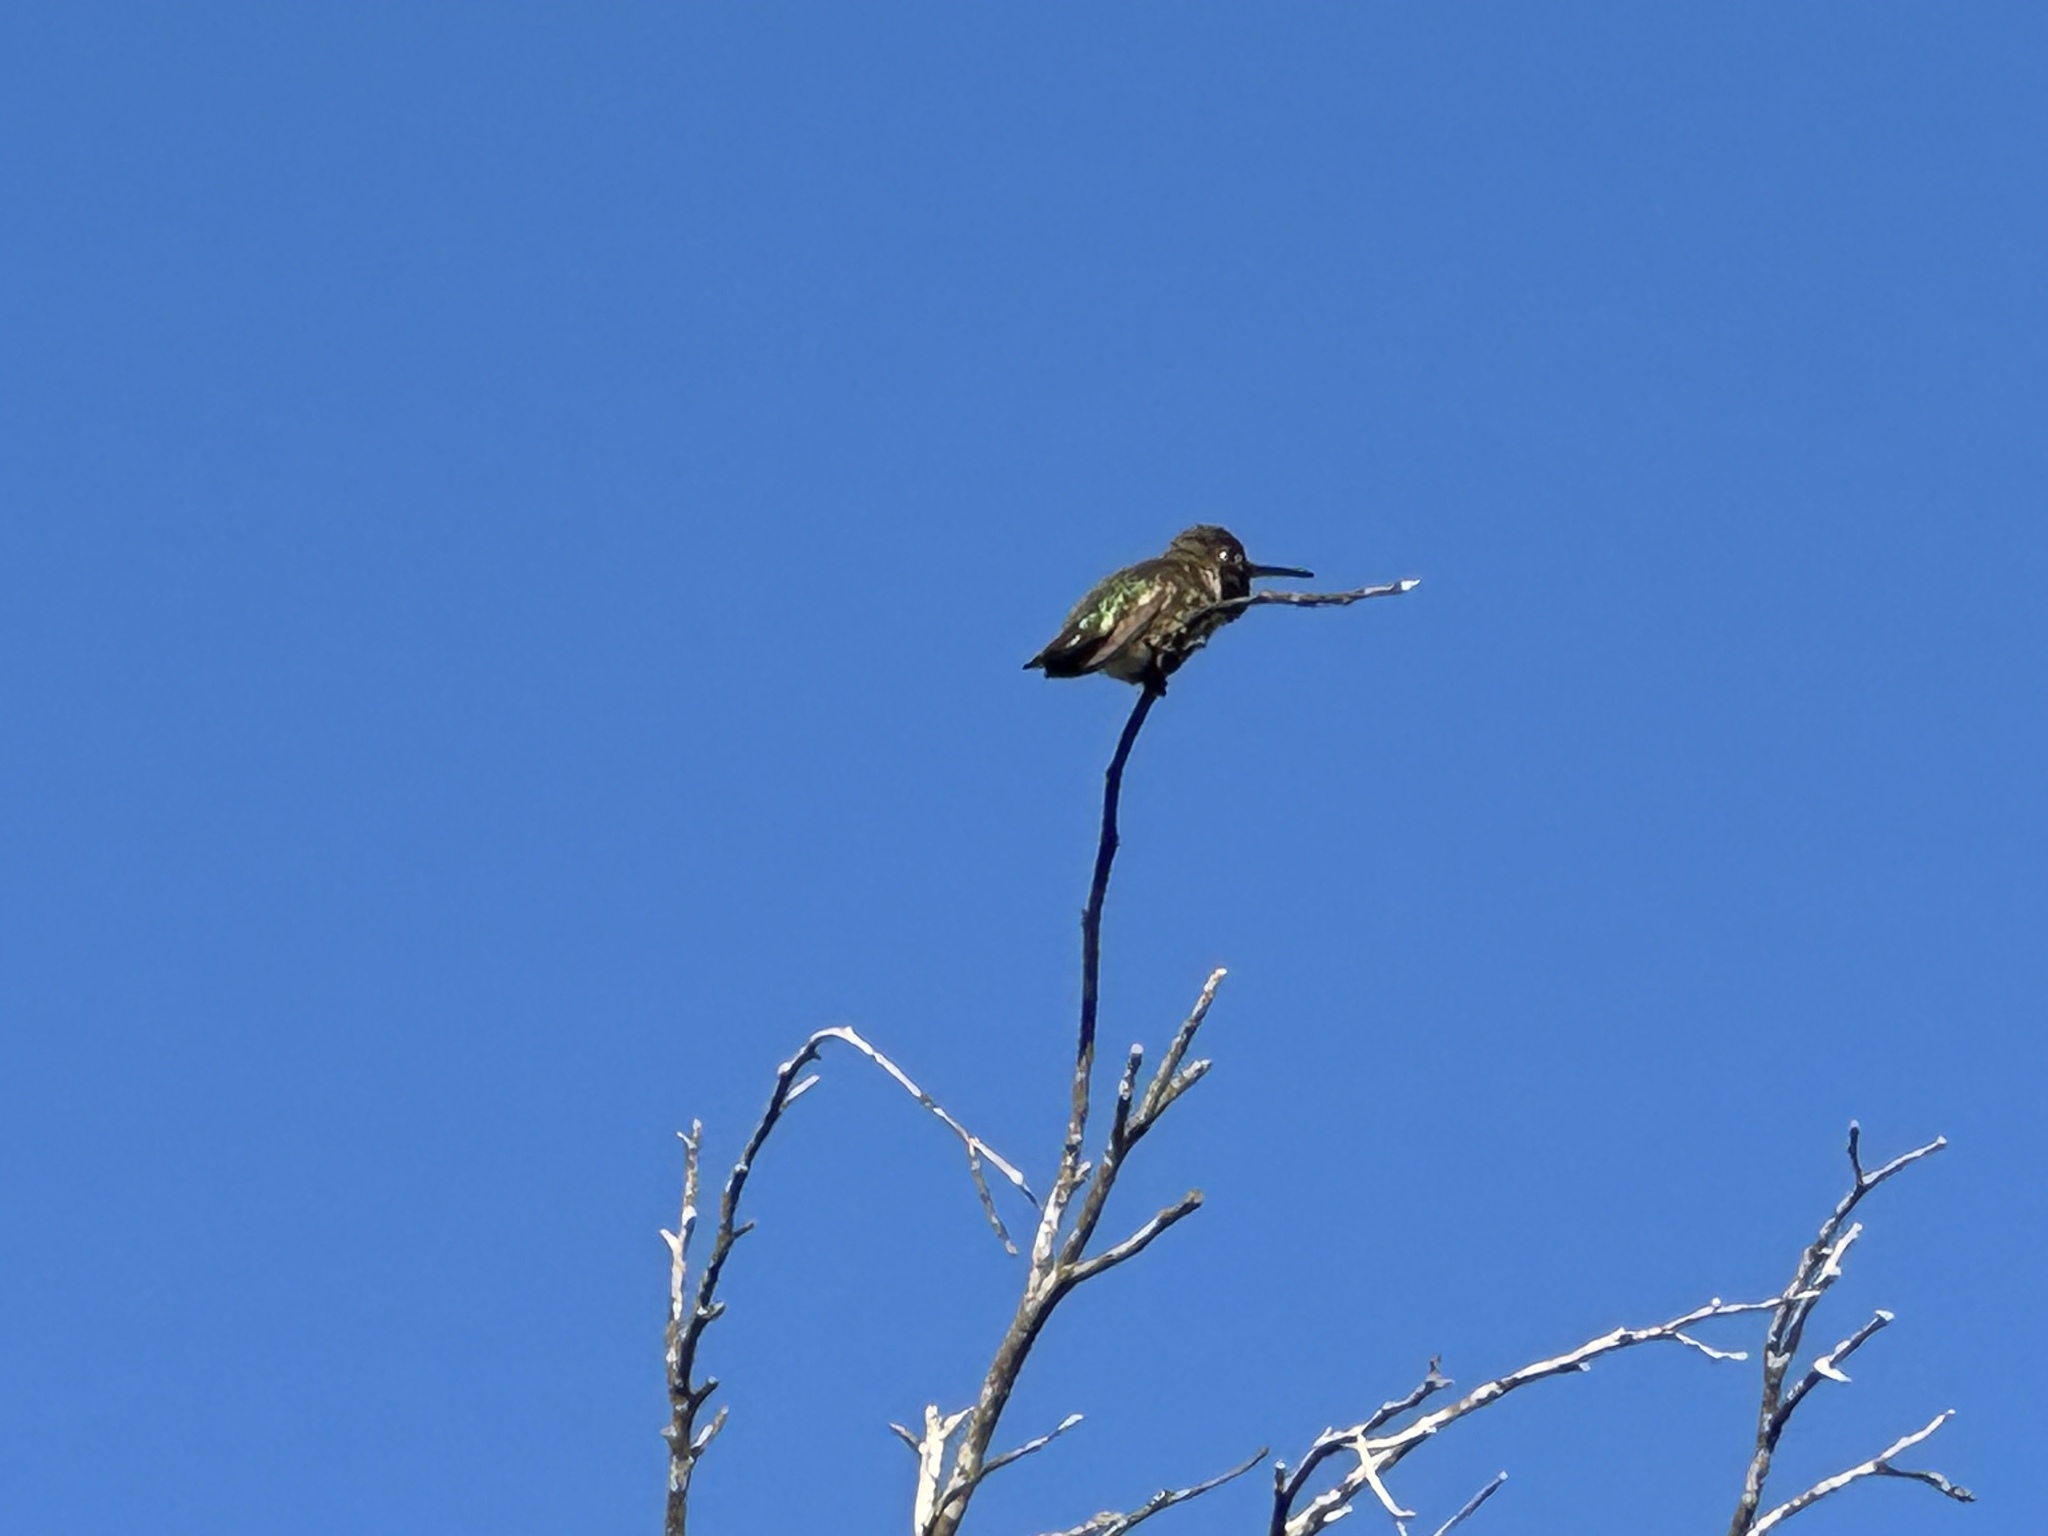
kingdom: Animalia
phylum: Chordata
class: Aves
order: Apodiformes
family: Trochilidae
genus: Calypte
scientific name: Calypte anna
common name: Anna's hummingbird
